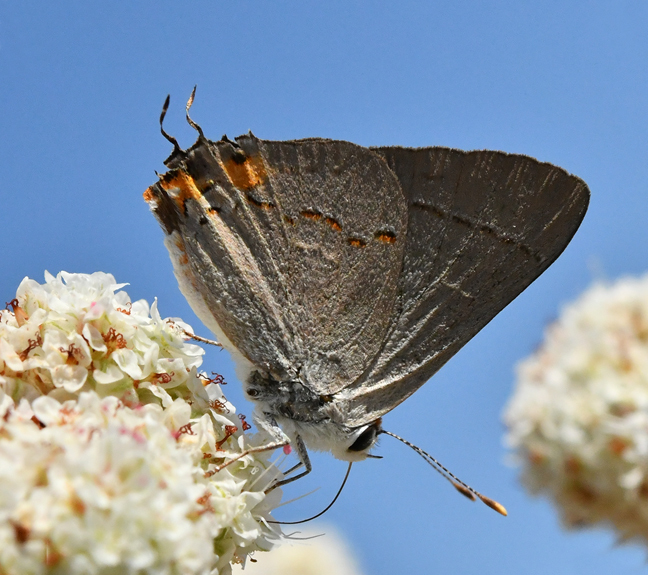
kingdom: Animalia
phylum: Arthropoda
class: Insecta
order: Lepidoptera
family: Lycaenidae
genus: Strymon
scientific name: Strymon melinus
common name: Gray hairstreak
